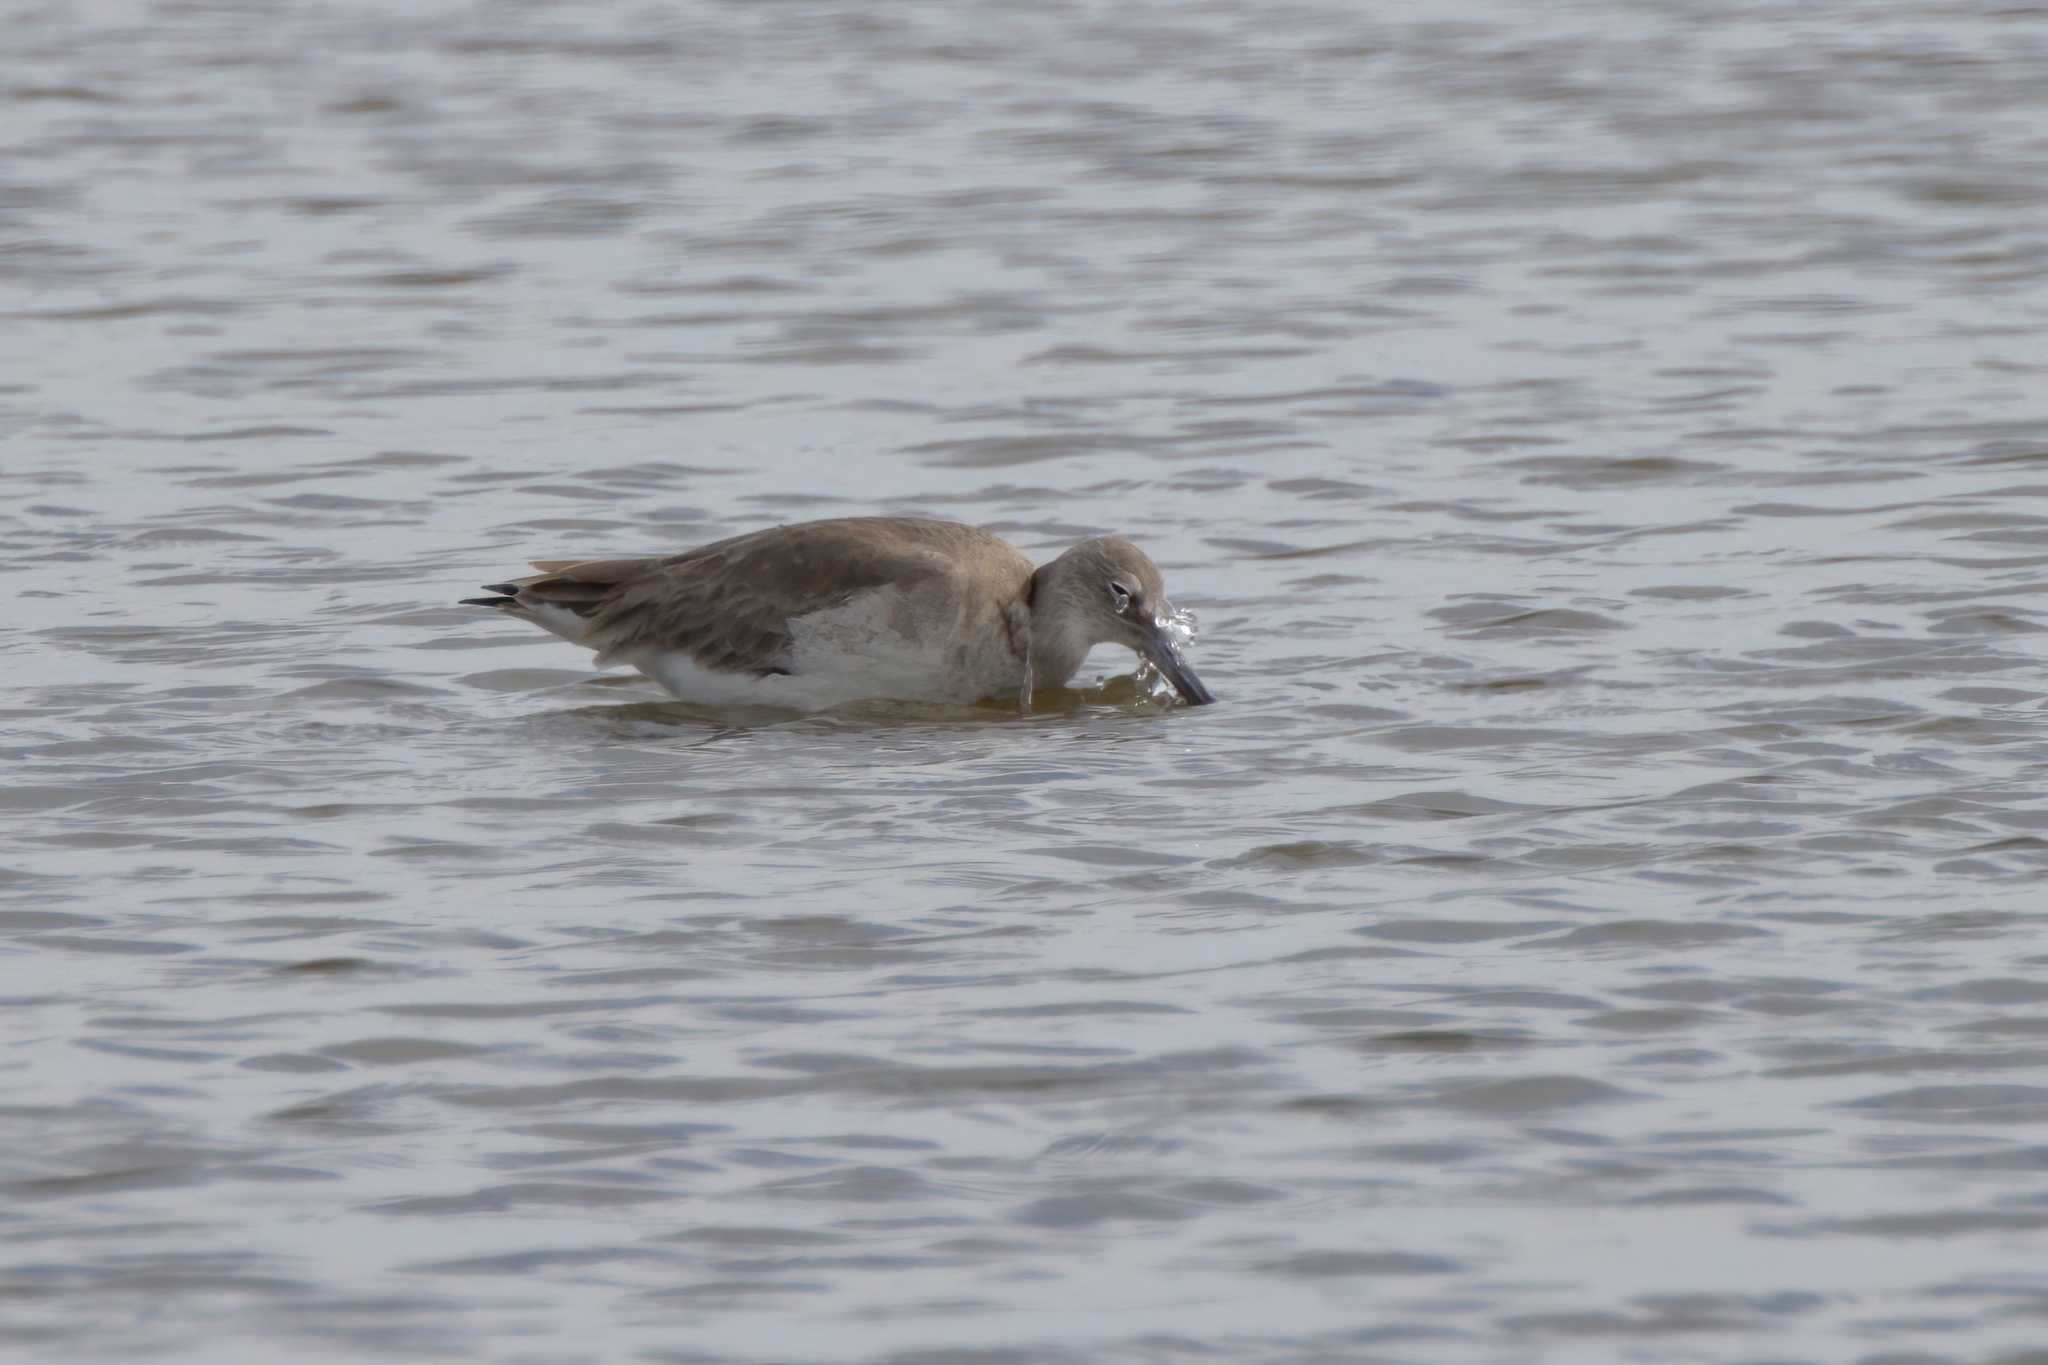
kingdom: Animalia
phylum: Chordata
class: Aves
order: Charadriiformes
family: Scolopacidae
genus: Tringa
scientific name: Tringa semipalmata
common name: Willet
